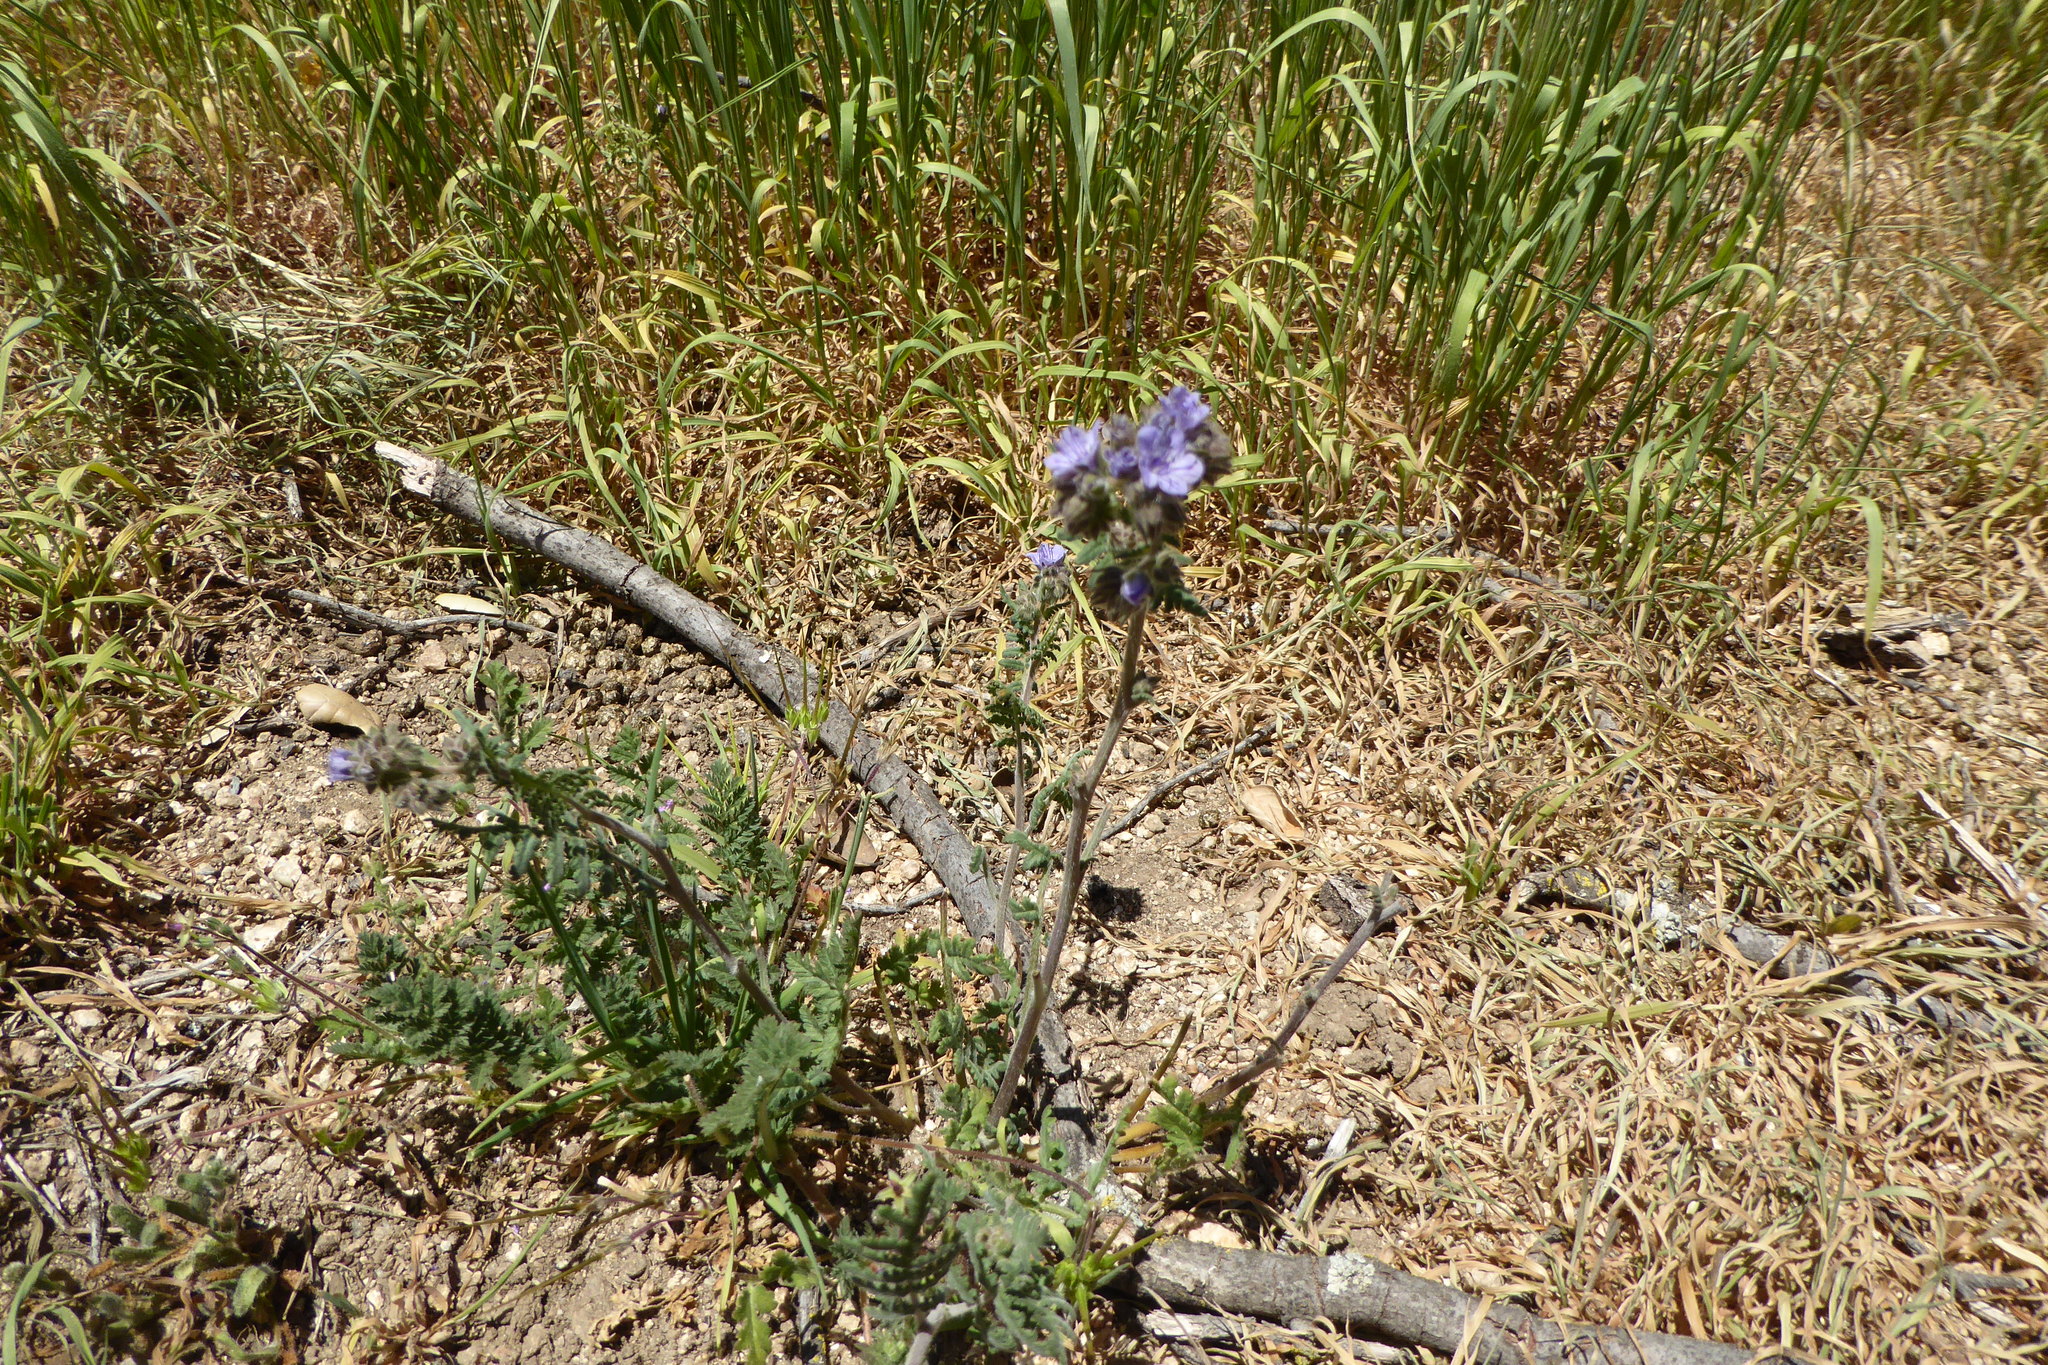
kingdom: Plantae
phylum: Tracheophyta
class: Magnoliopsida
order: Boraginales
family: Hydrophyllaceae
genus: Phacelia
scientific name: Phacelia distans
